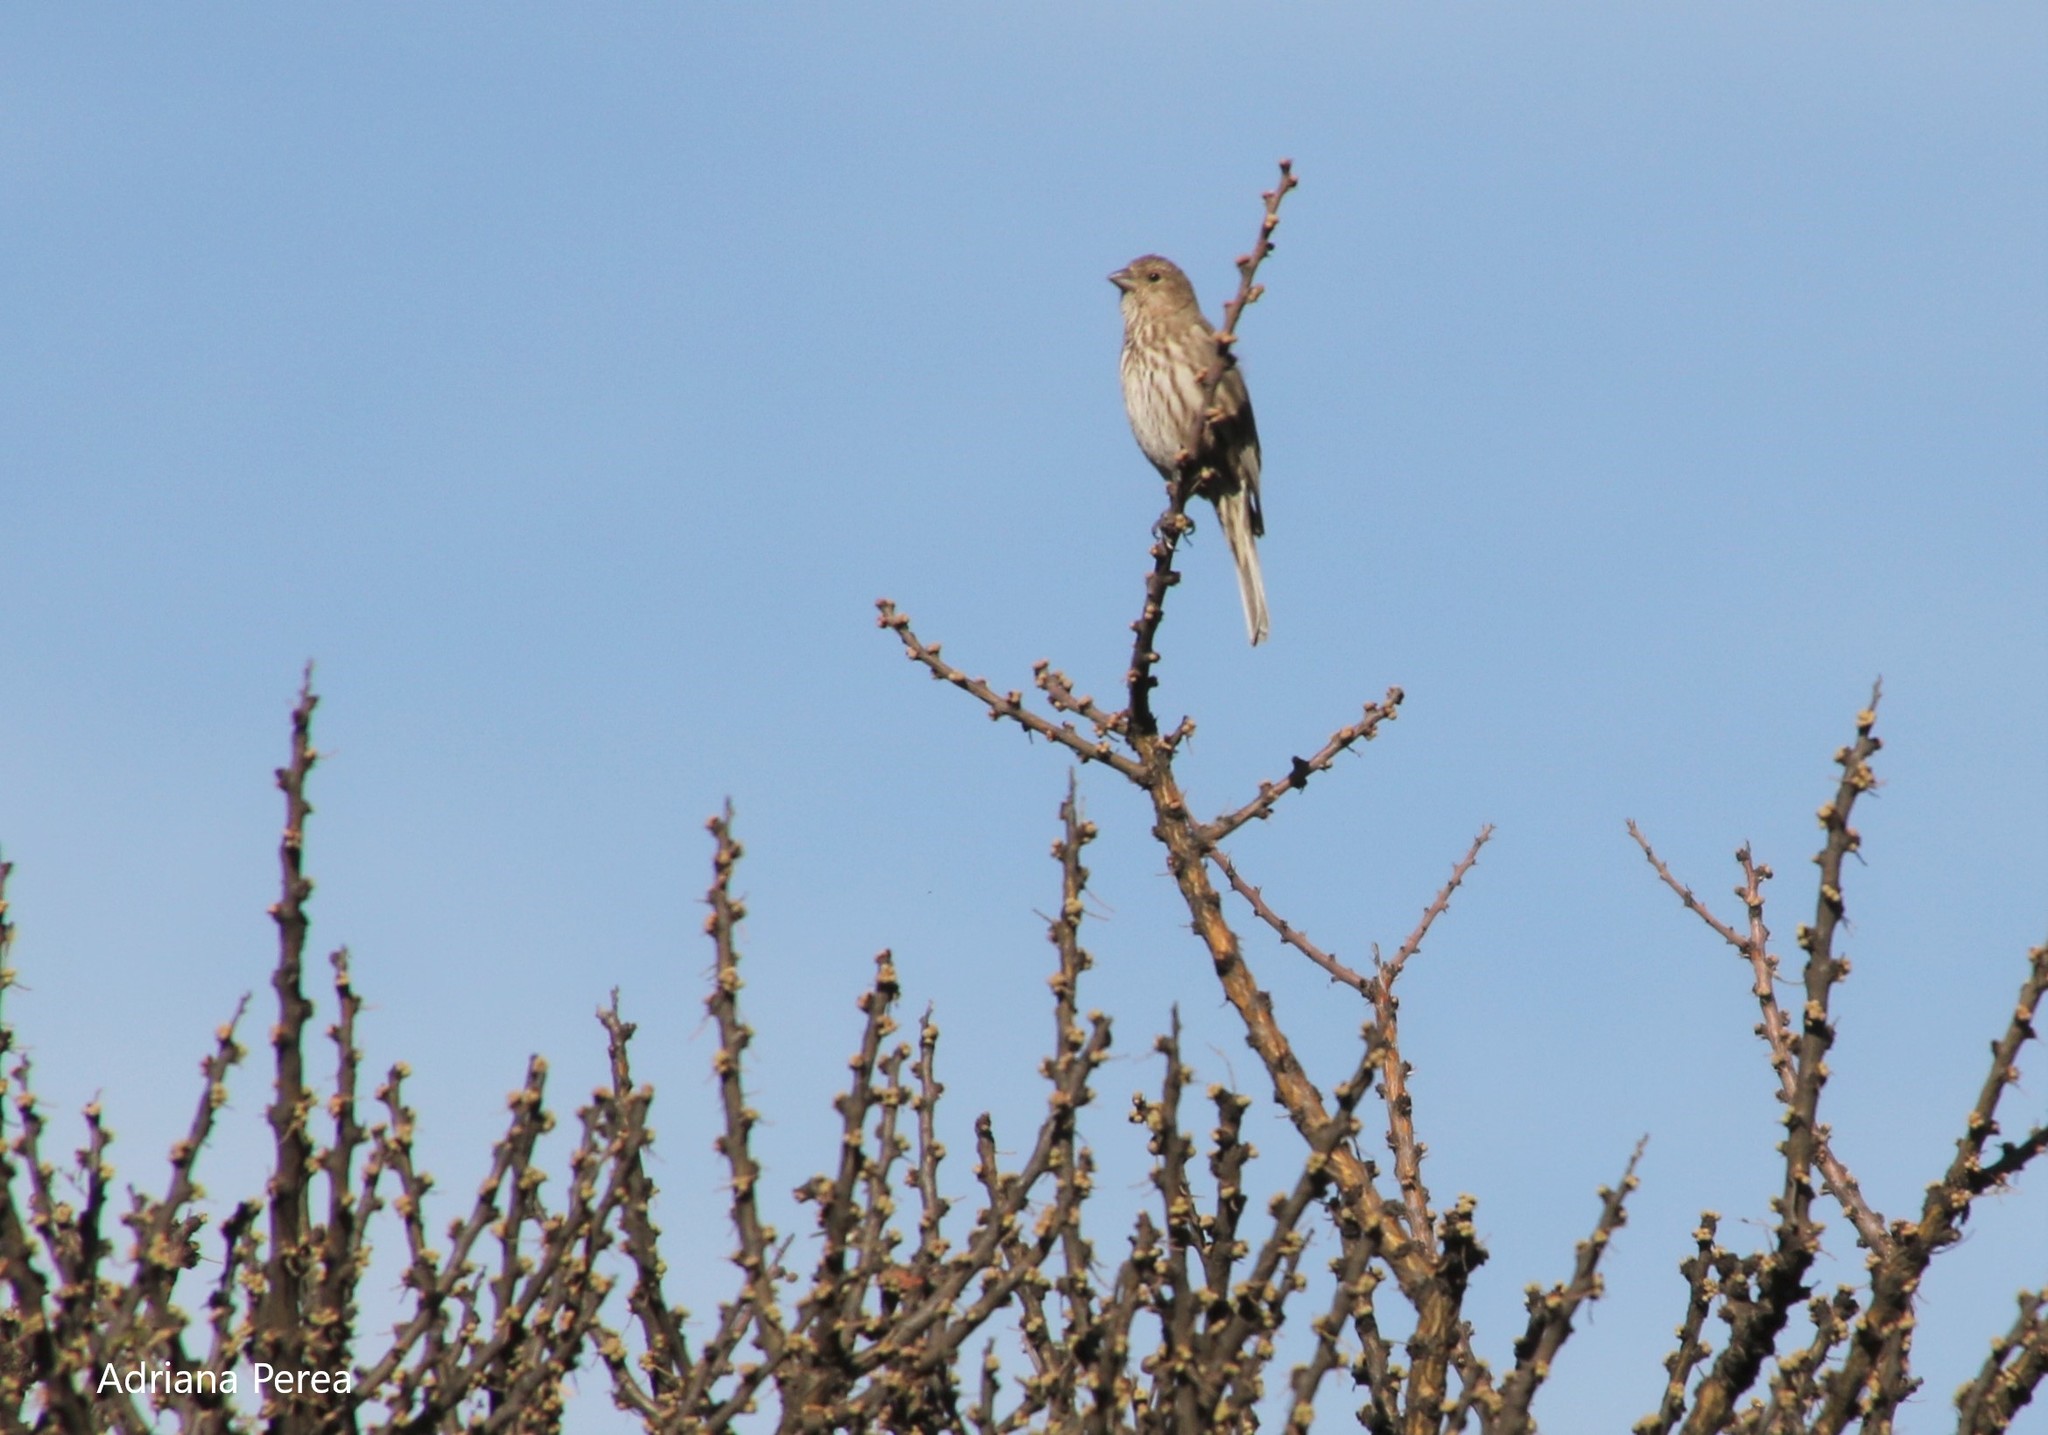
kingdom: Animalia
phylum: Chordata
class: Aves
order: Passeriformes
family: Fringillidae
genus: Haemorhous
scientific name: Haemorhous mexicanus
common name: House finch
